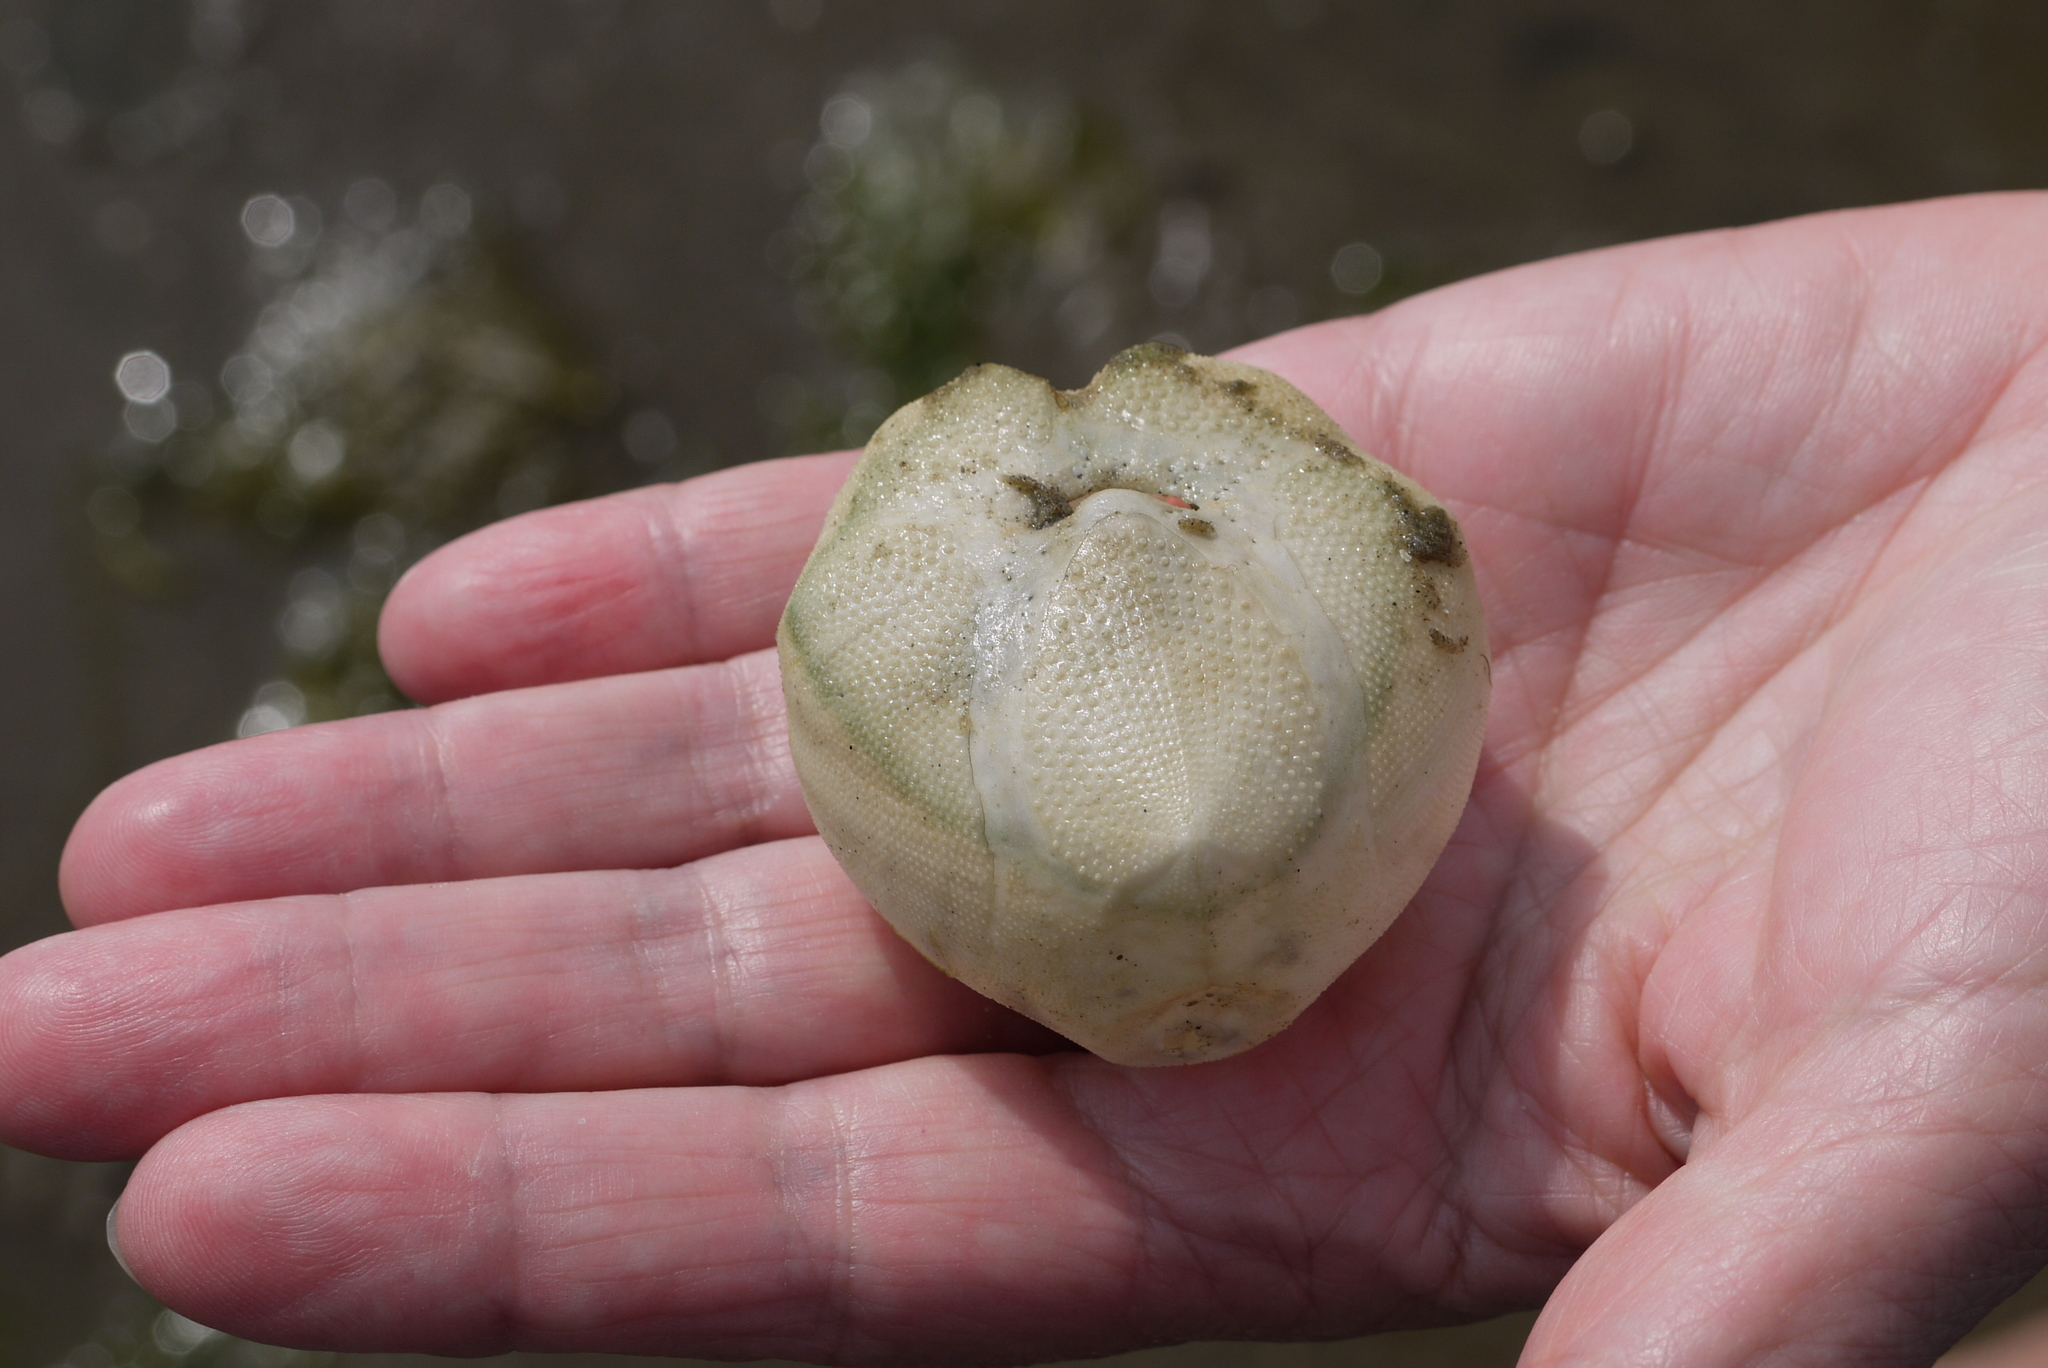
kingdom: Animalia
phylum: Echinodermata
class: Echinoidea
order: Spatangoida
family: Loveniidae
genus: Echinocardium
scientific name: Echinocardium cordatum
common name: Heart-urchin
